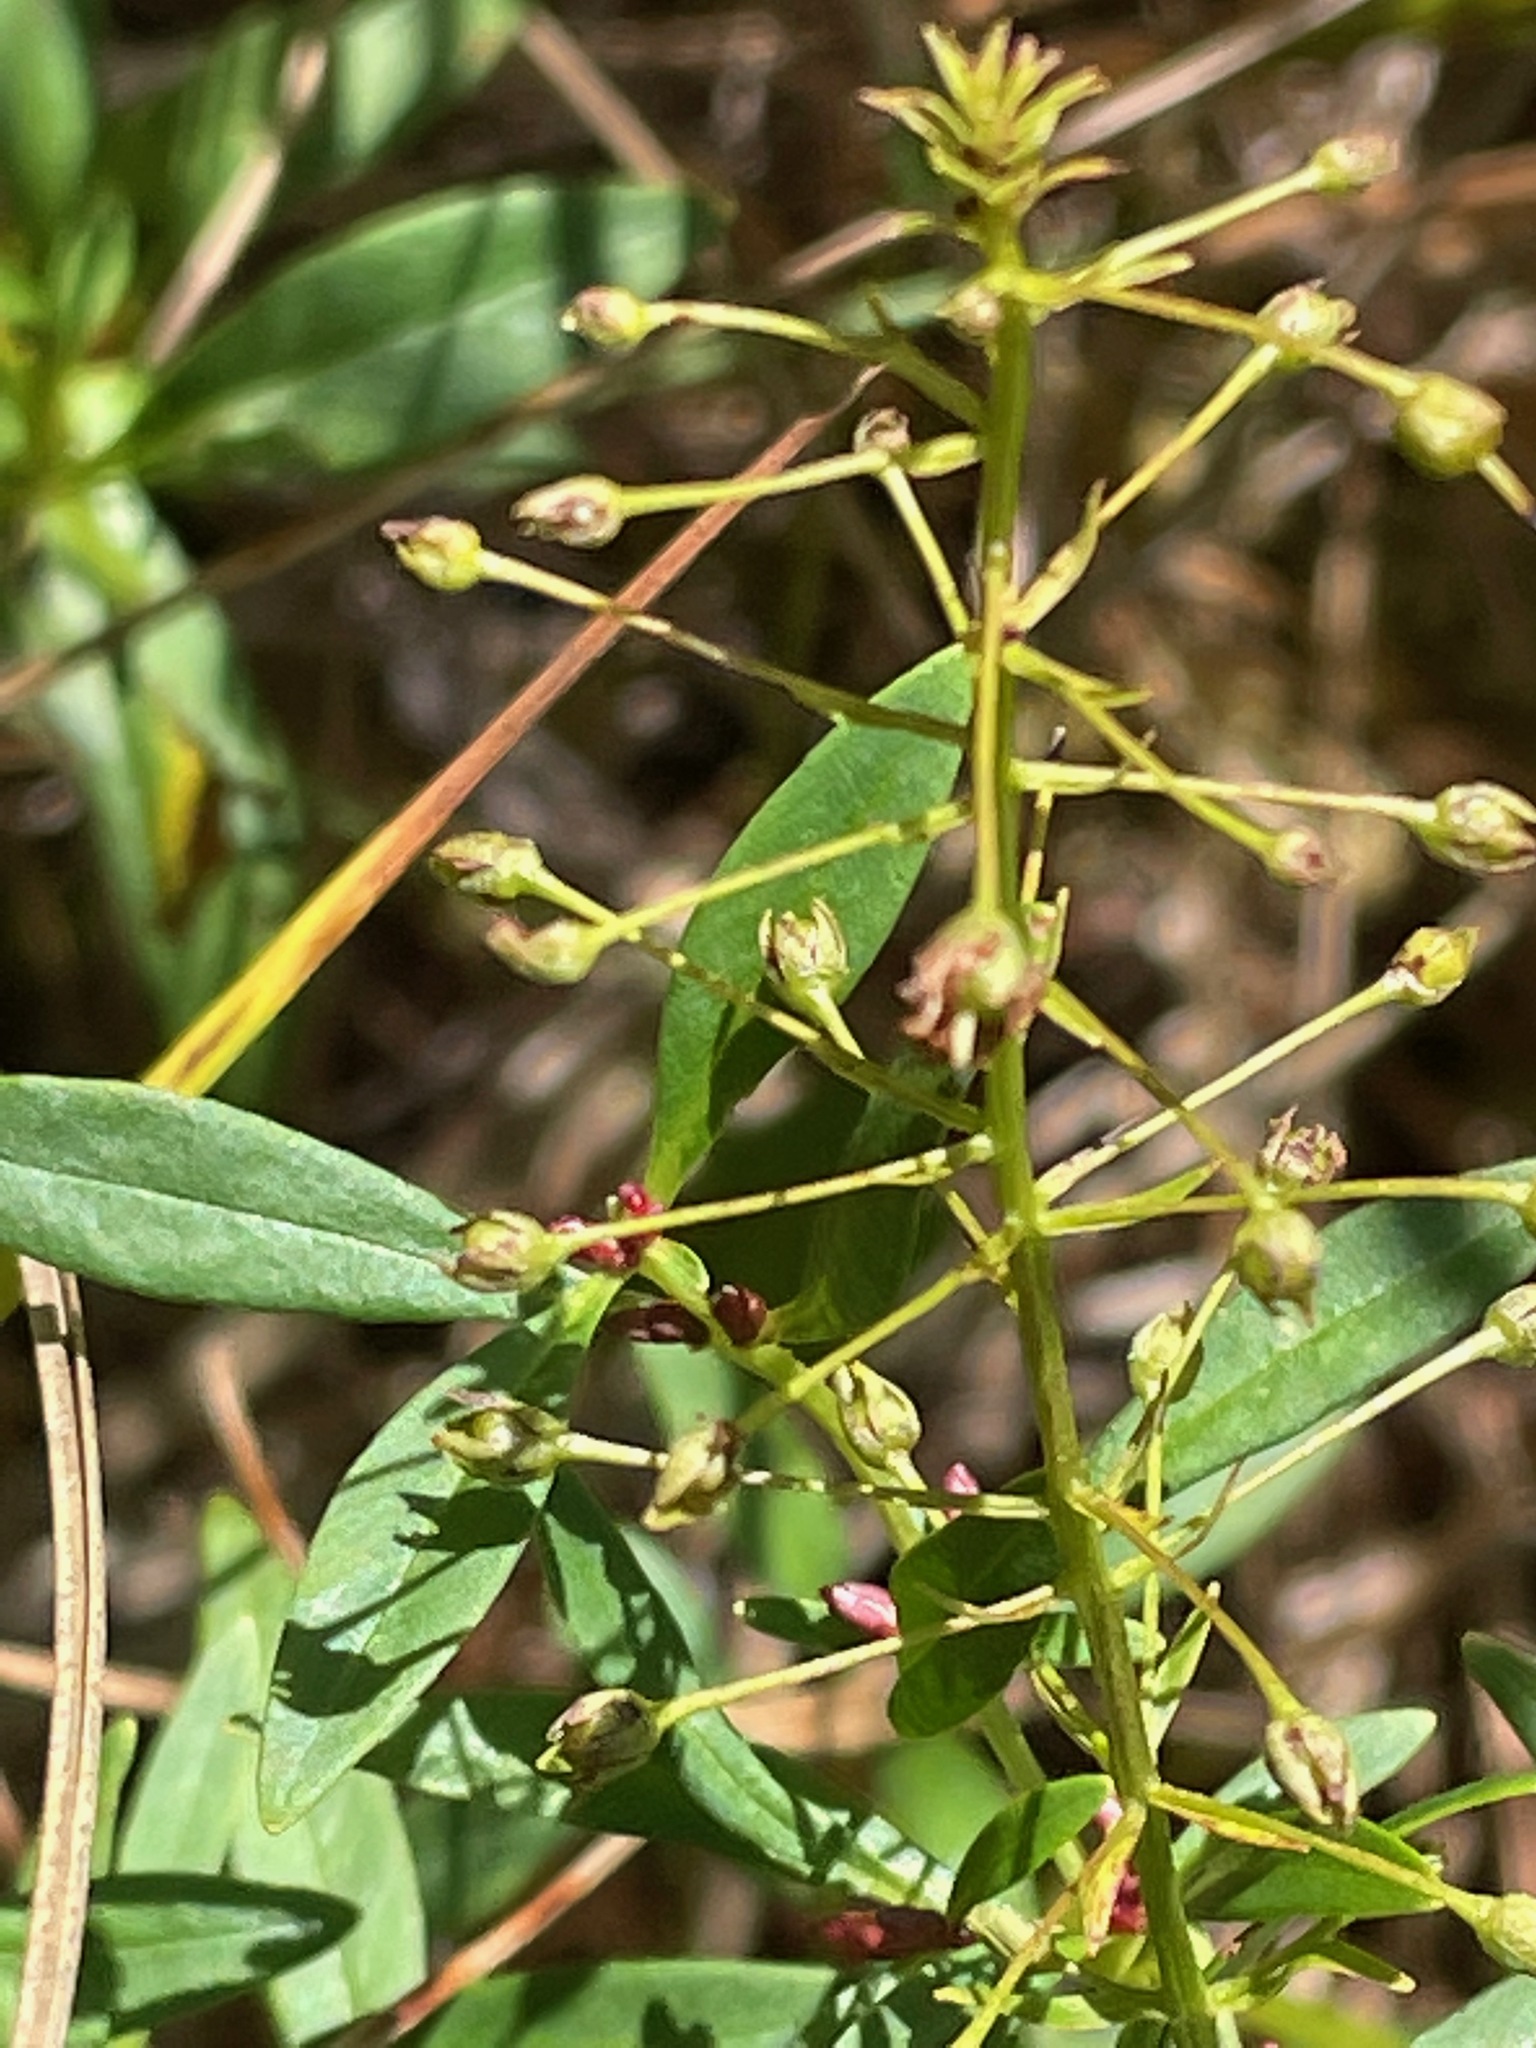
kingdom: Plantae
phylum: Tracheophyta
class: Magnoliopsida
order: Ericales
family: Primulaceae
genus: Lysimachia
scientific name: Lysimachia terrestris
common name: Lake loosestrife
